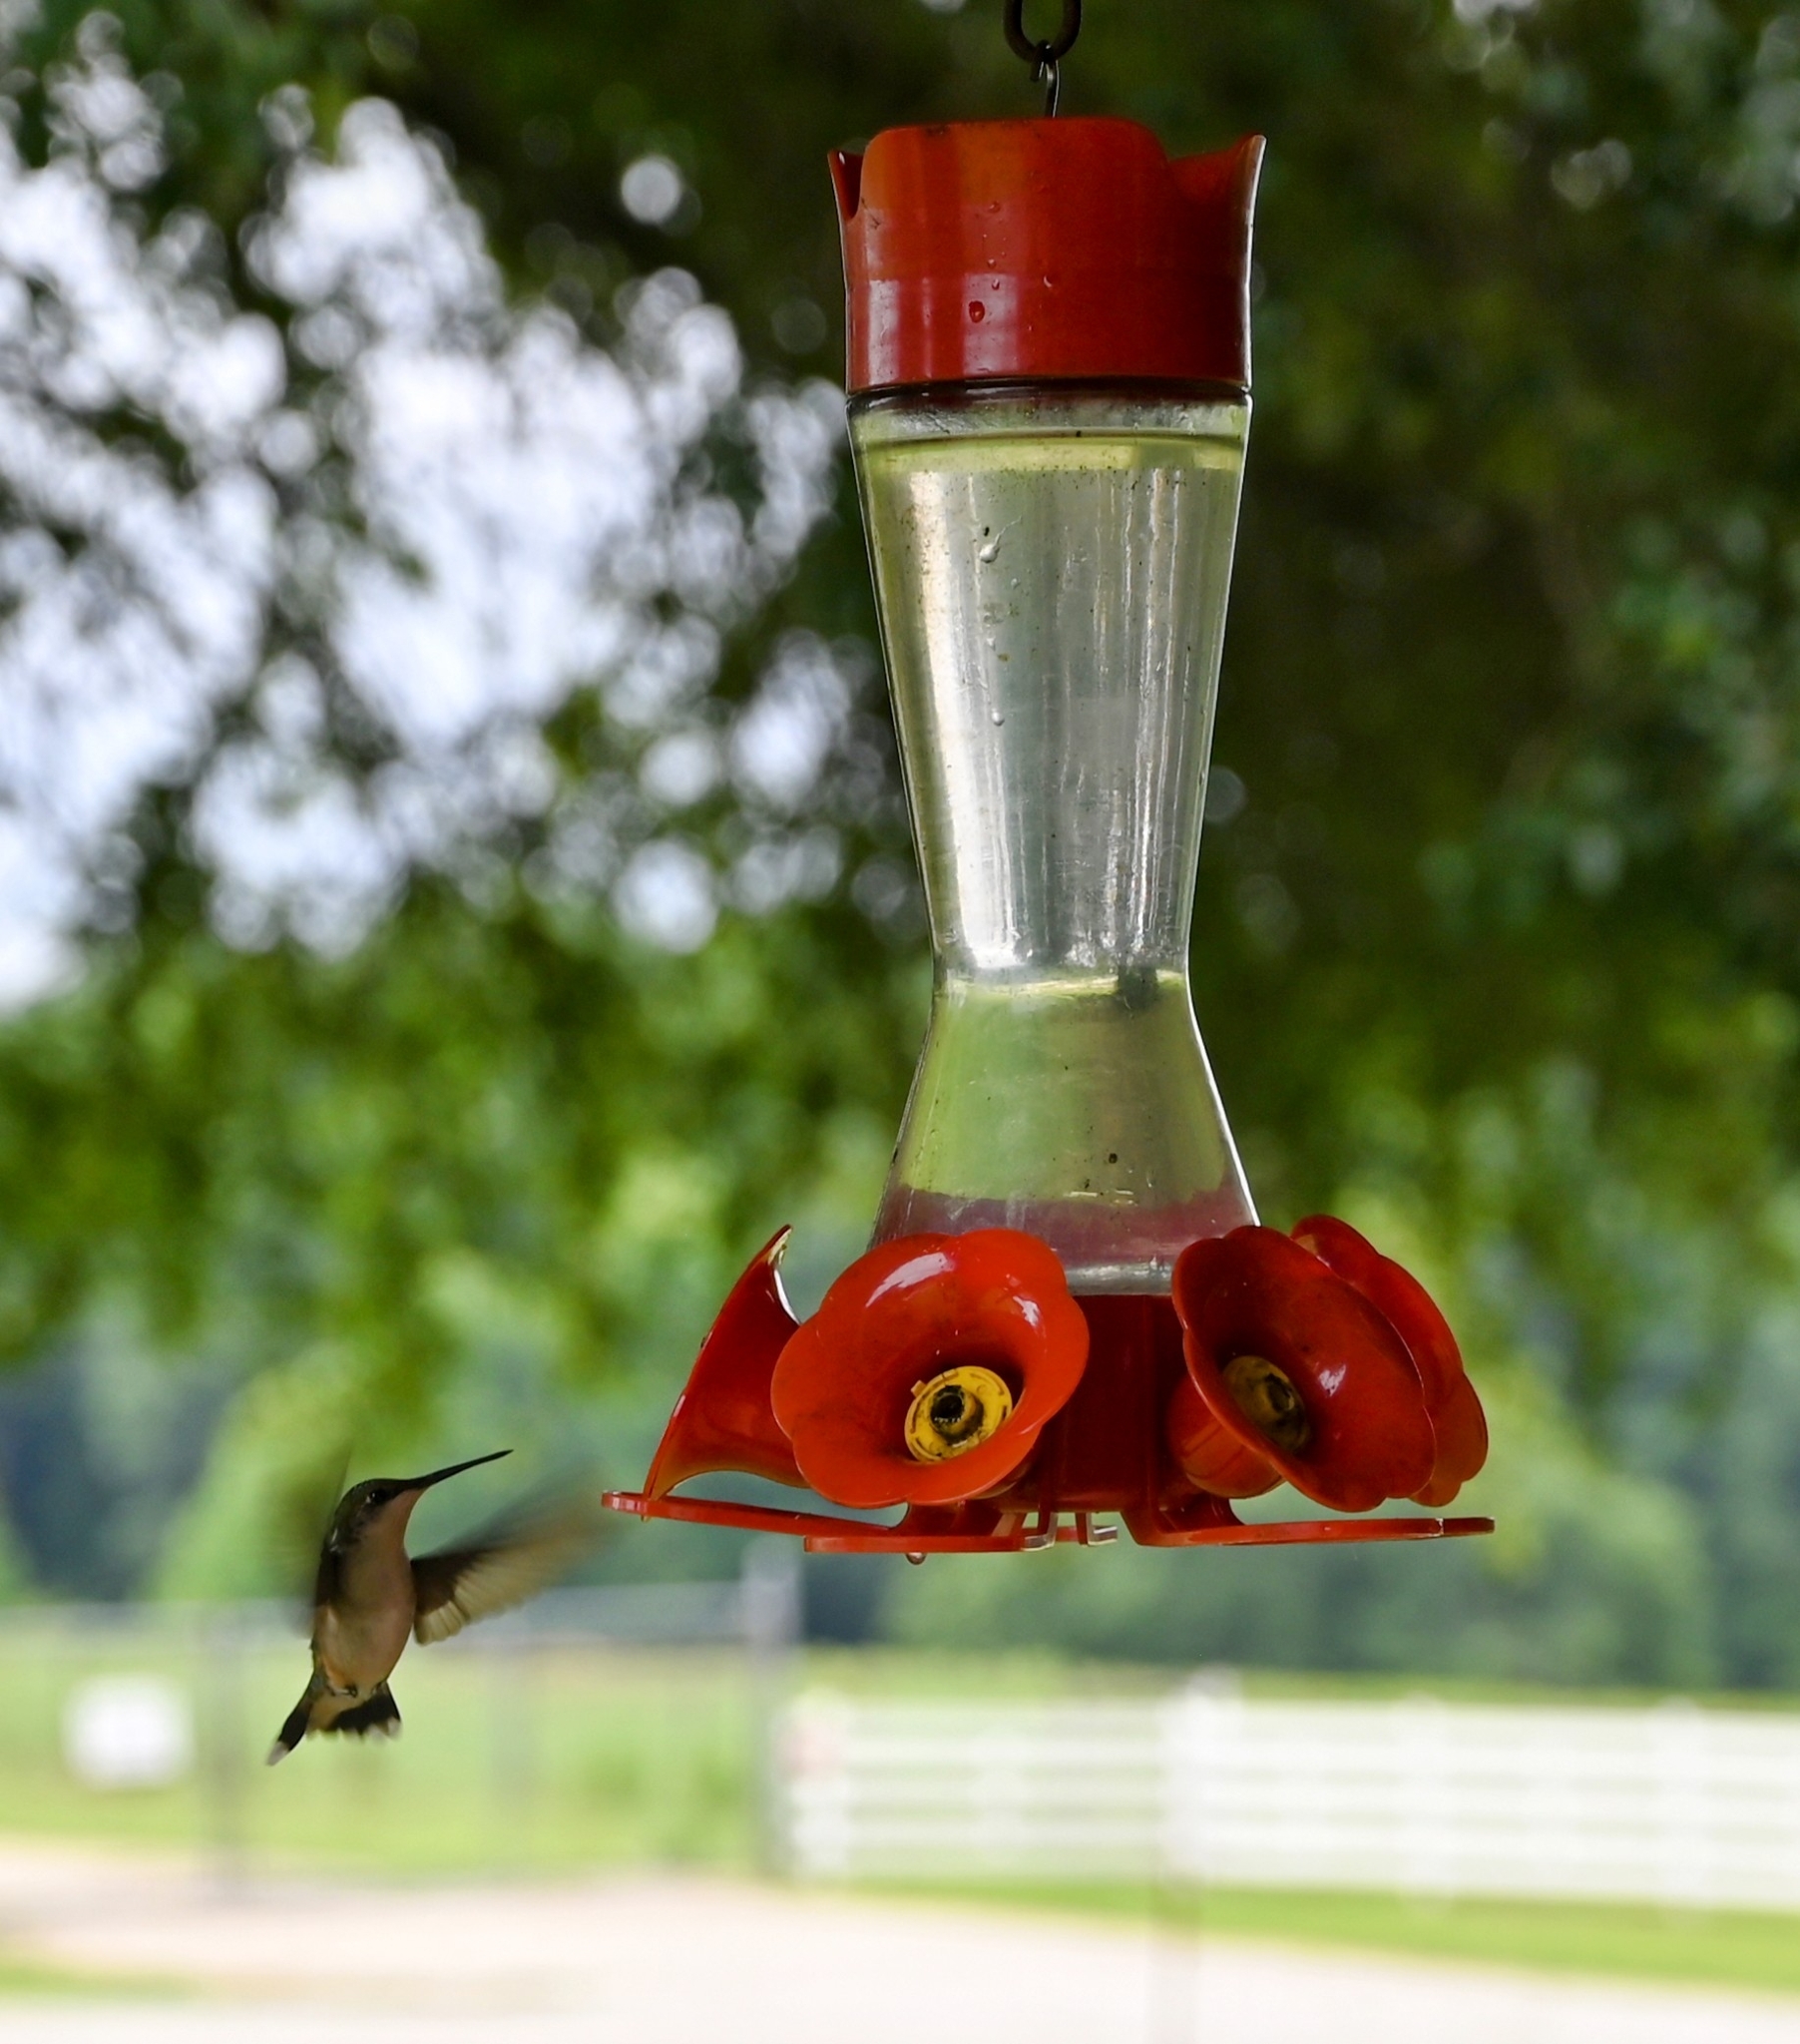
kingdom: Animalia
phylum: Chordata
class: Aves
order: Apodiformes
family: Trochilidae
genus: Archilochus
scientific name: Archilochus colubris
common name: Ruby-throated hummingbird
